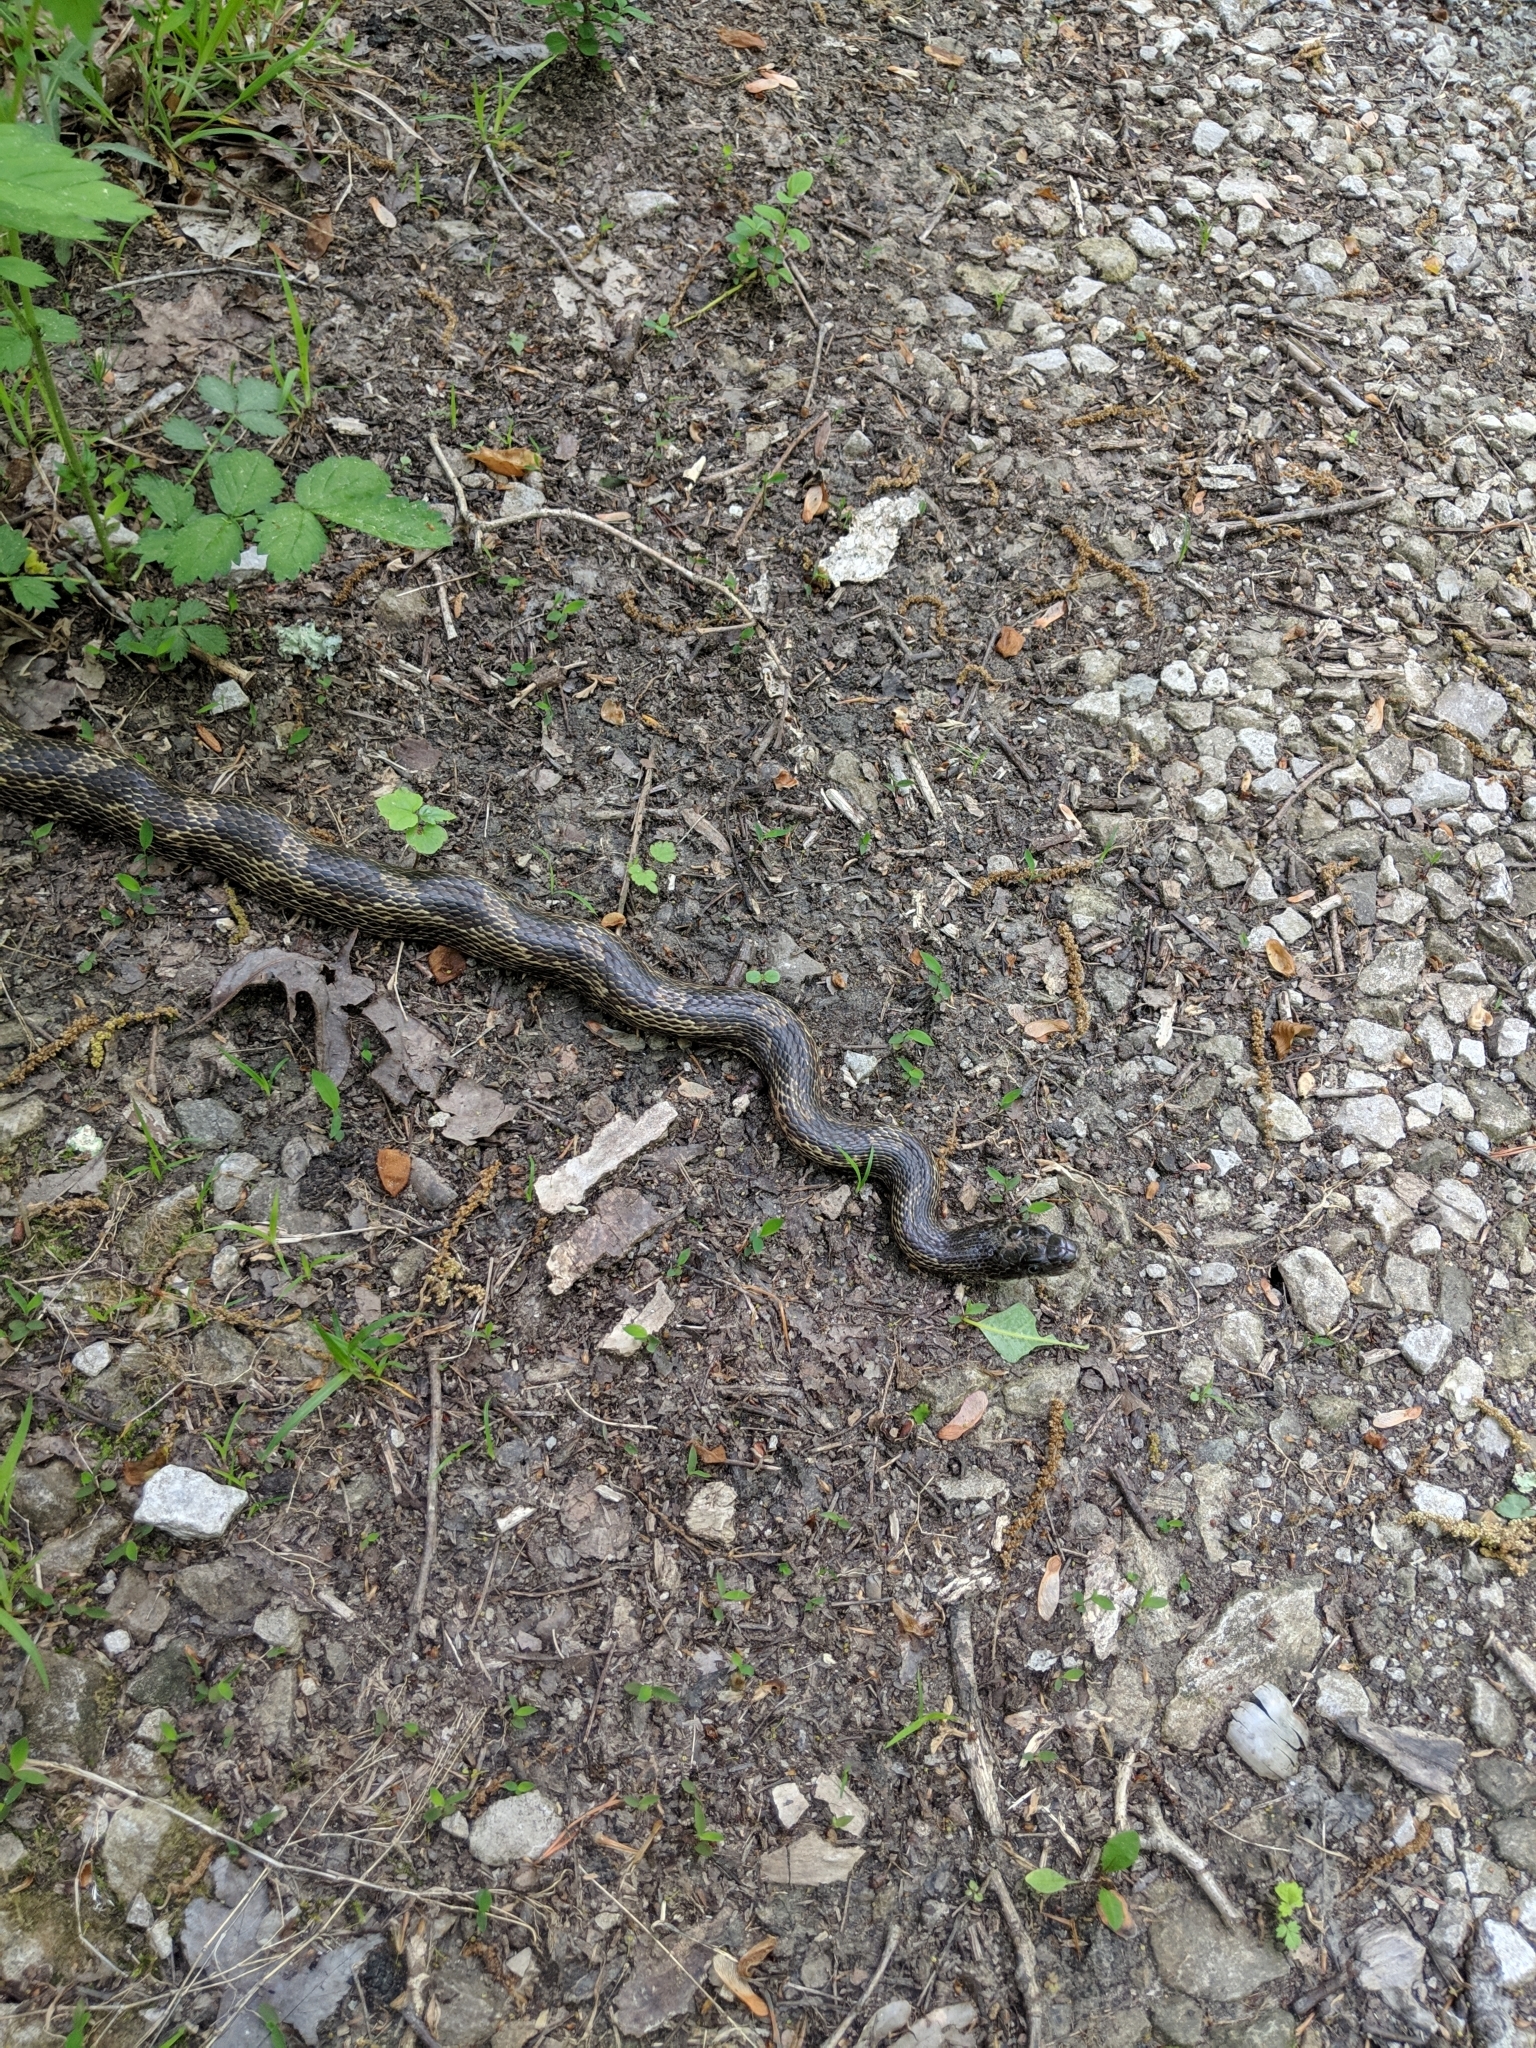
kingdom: Animalia
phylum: Chordata
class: Squamata
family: Colubridae
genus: Pantherophis
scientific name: Pantherophis spiloides
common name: Gray rat snake
